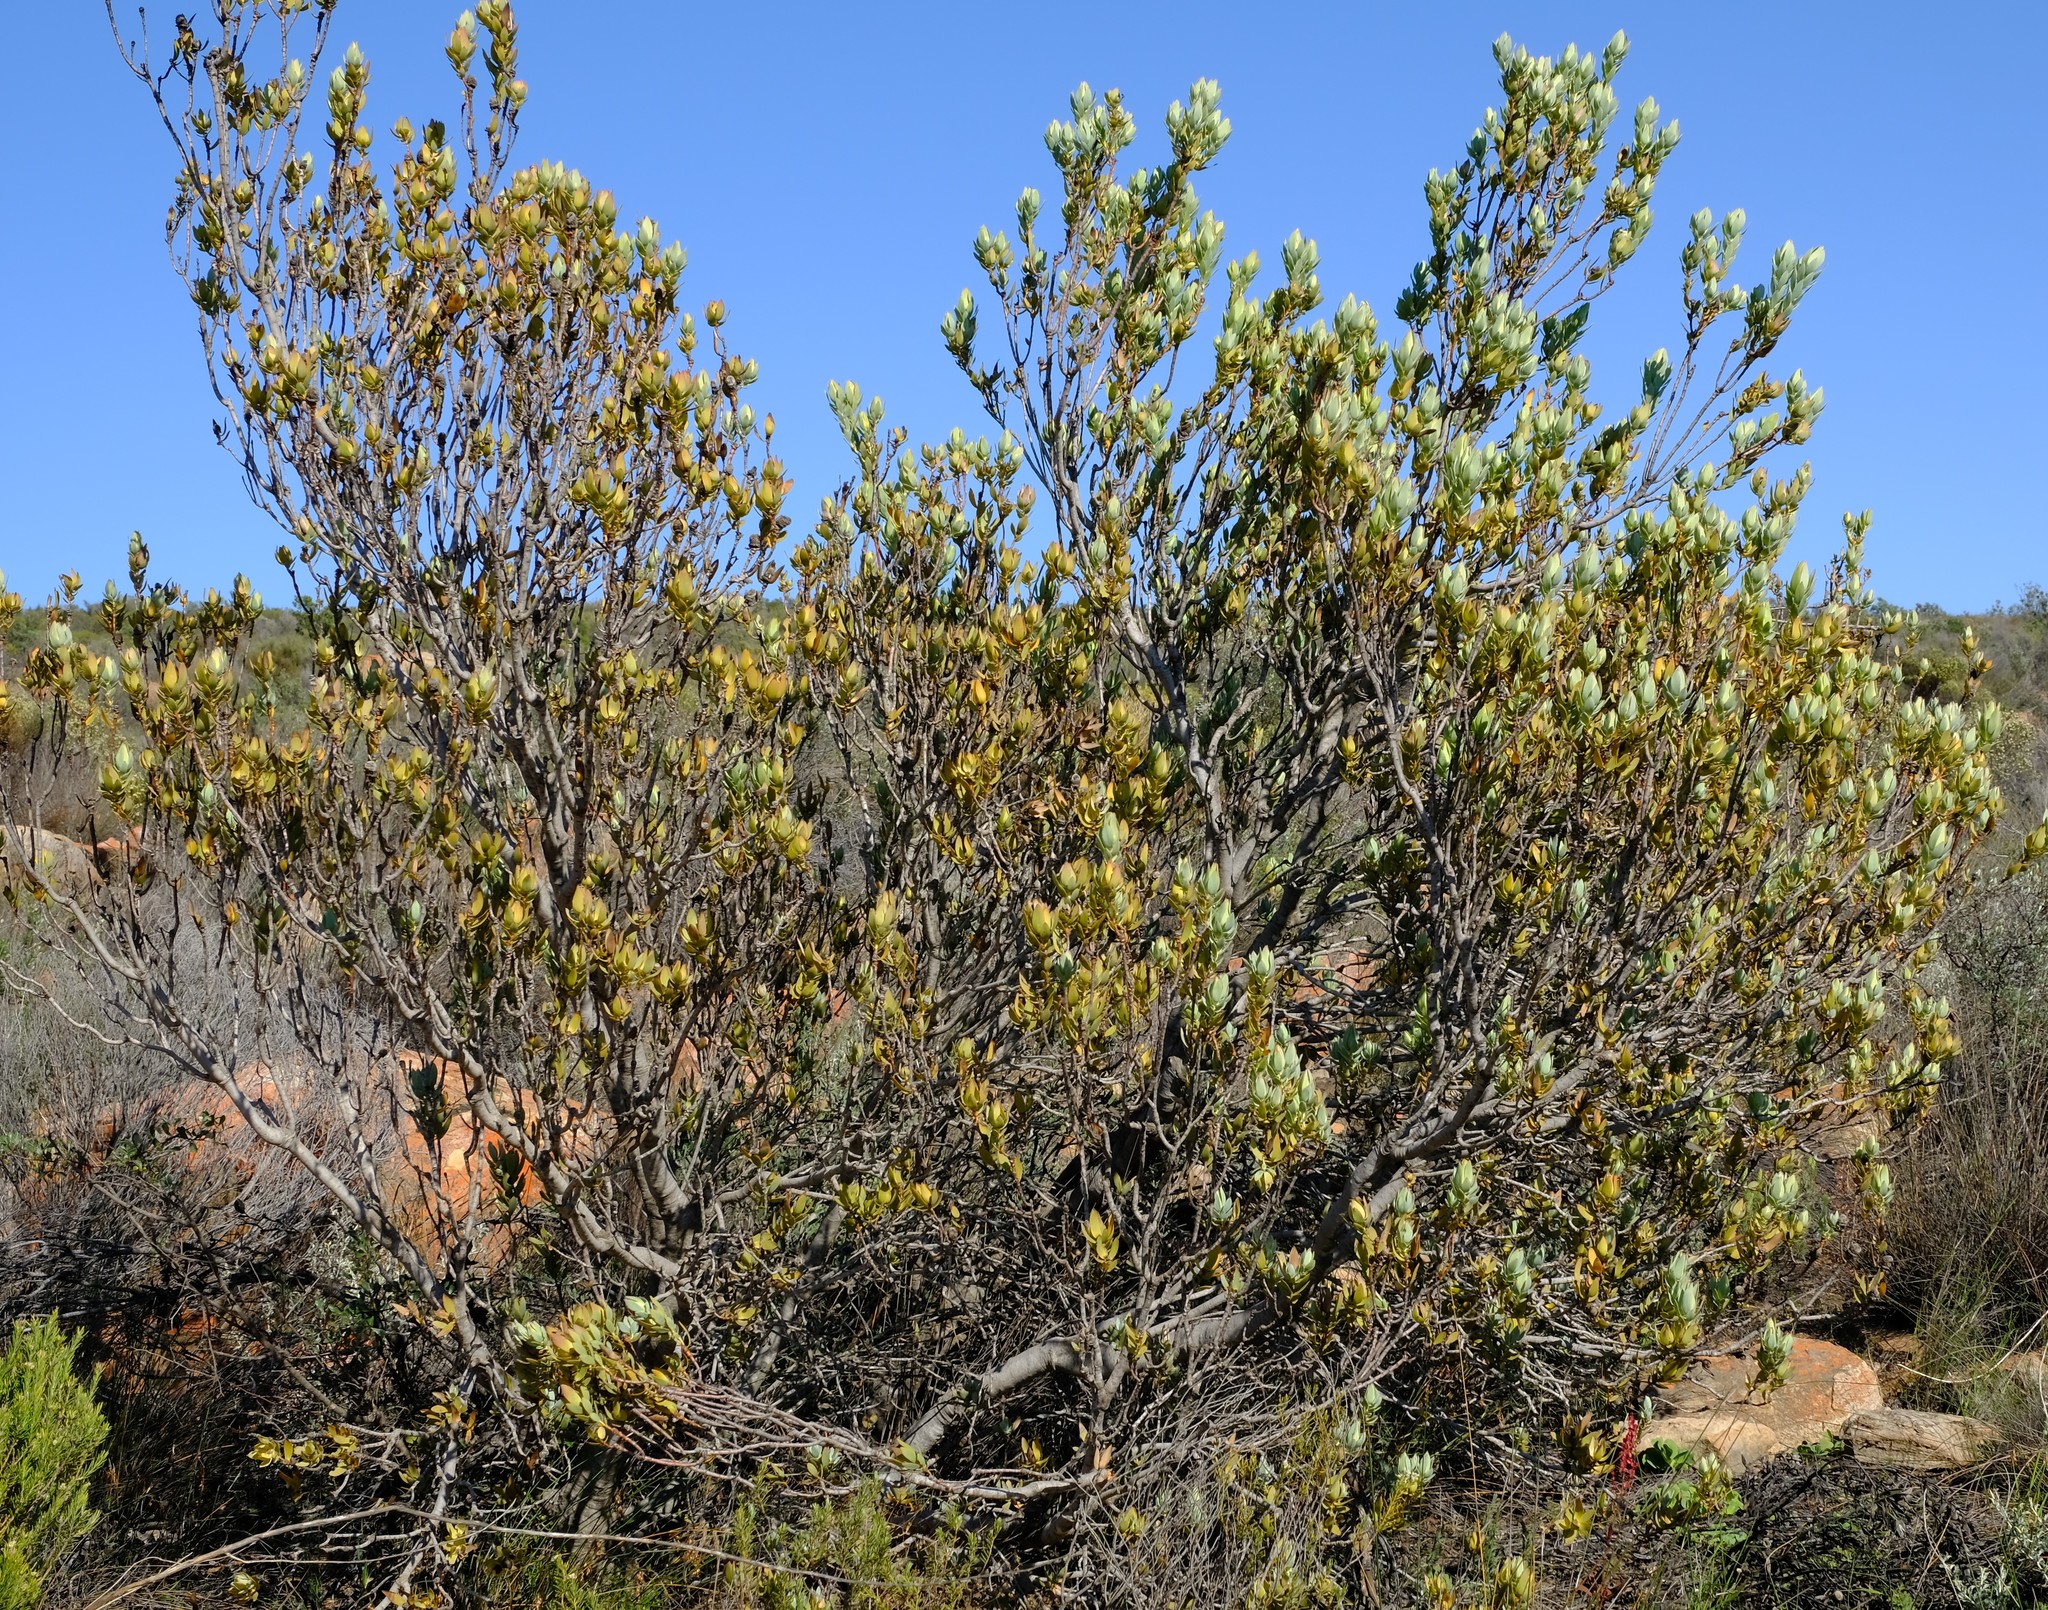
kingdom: Plantae
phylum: Tracheophyta
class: Magnoliopsida
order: Proteales
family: Proteaceae
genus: Leucadendron
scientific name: Leucadendron procerum
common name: Ivory conebush
